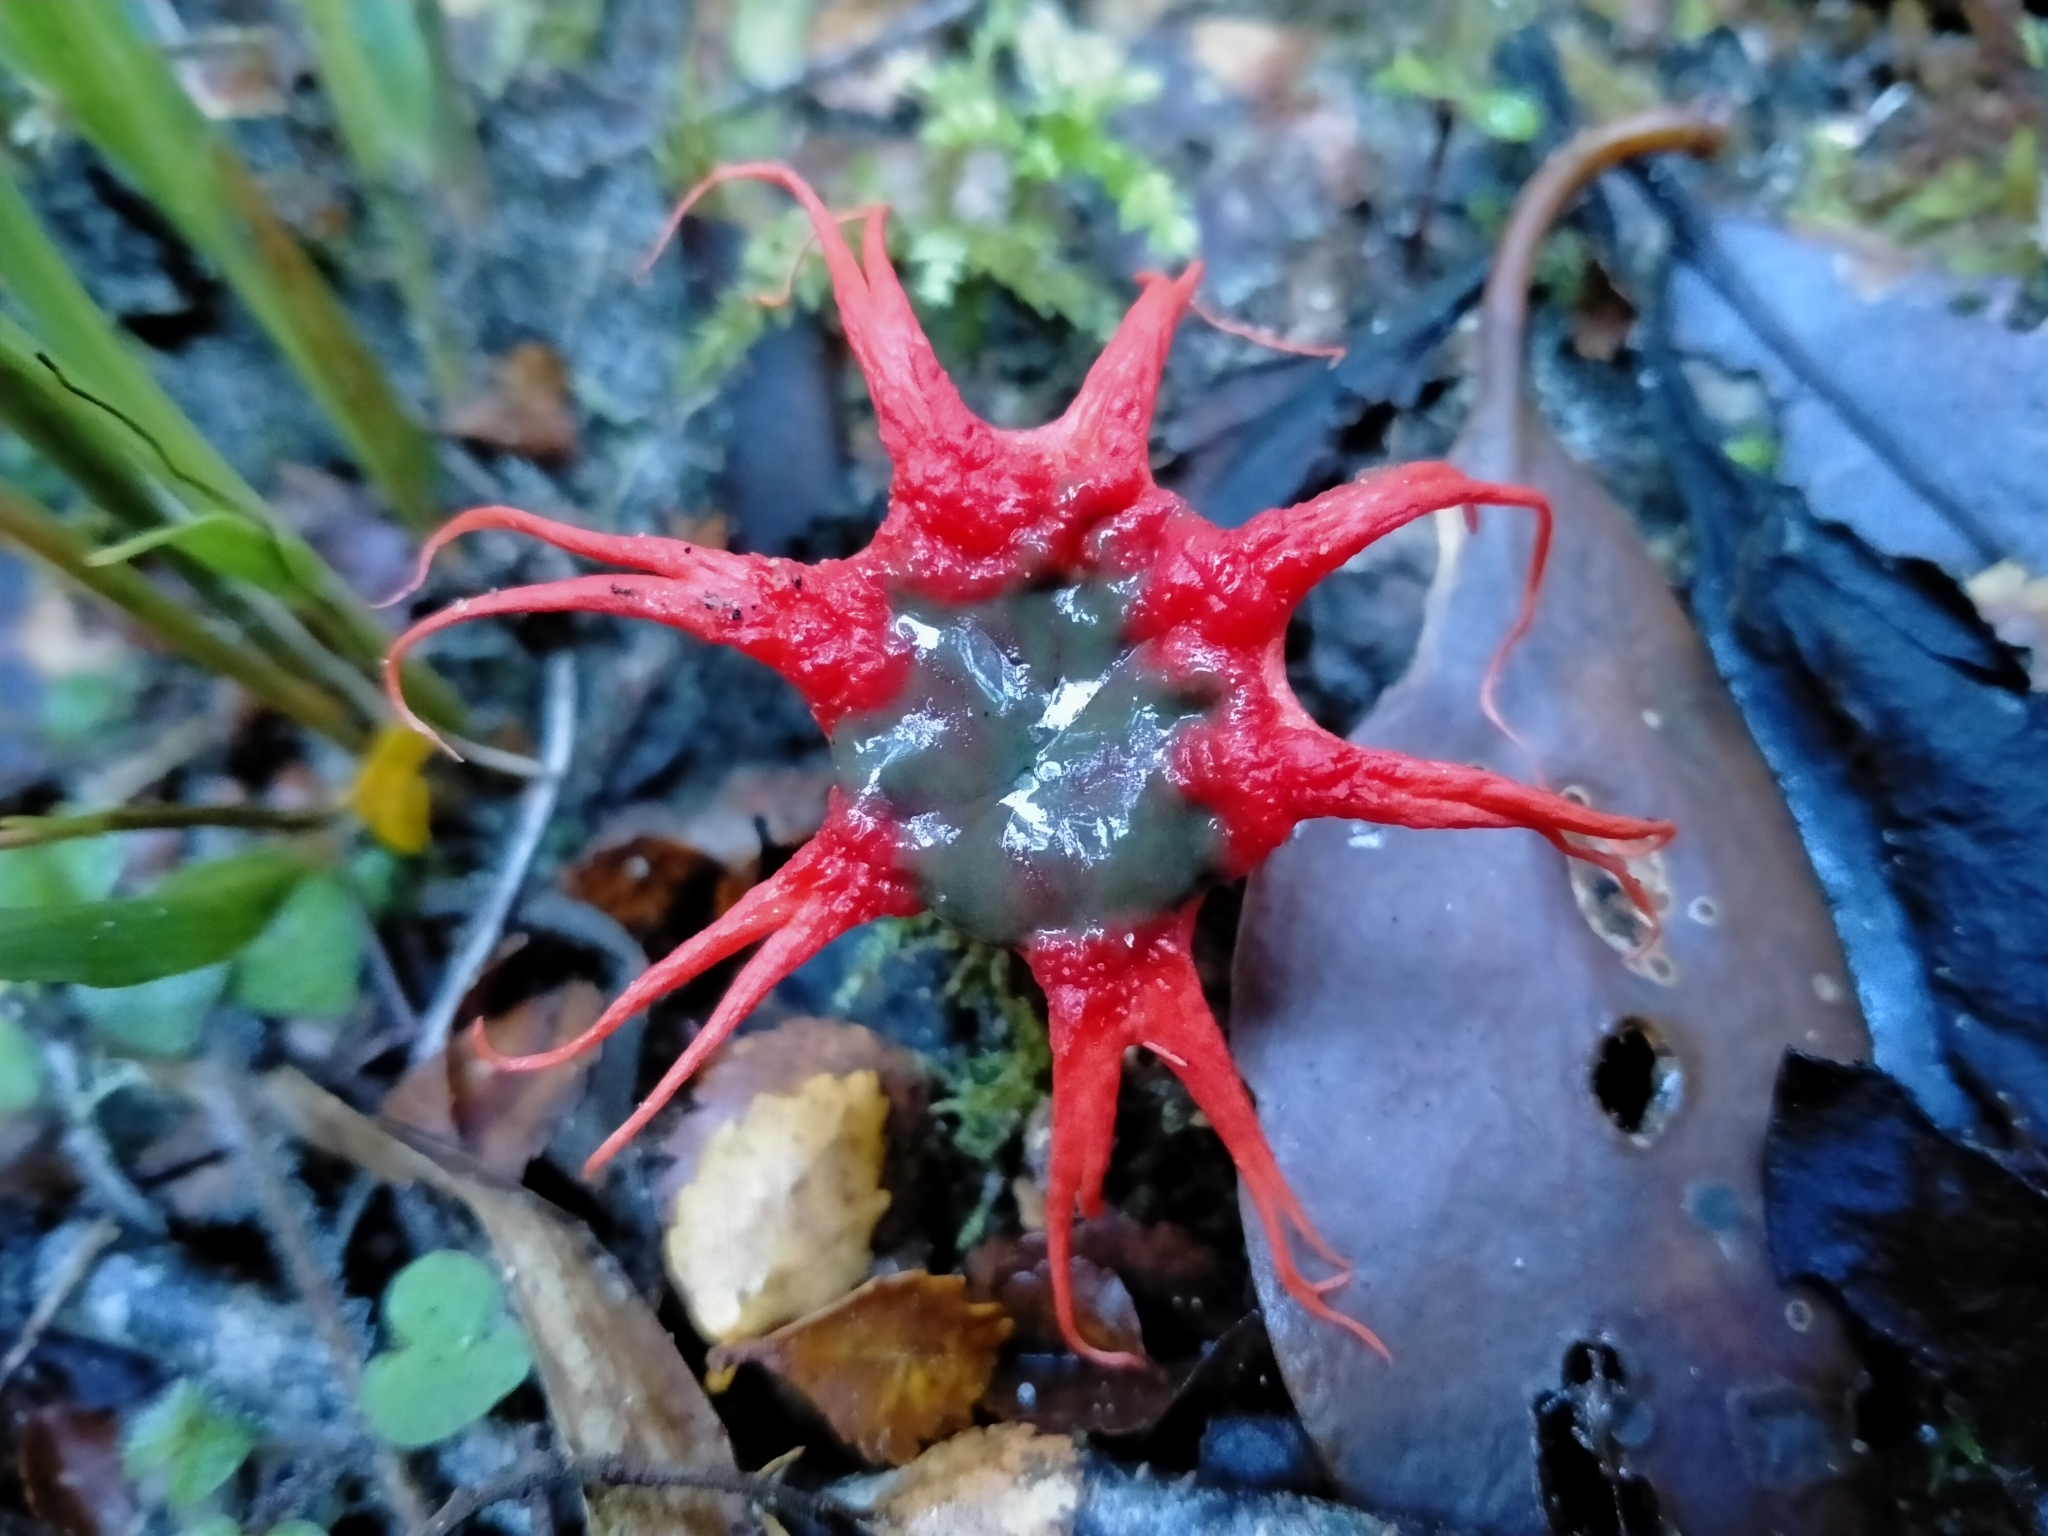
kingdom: Fungi
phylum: Basidiomycota
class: Agaricomycetes
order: Phallales
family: Phallaceae
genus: Aseroe
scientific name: Aseroe rubra
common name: Starfish fungus
